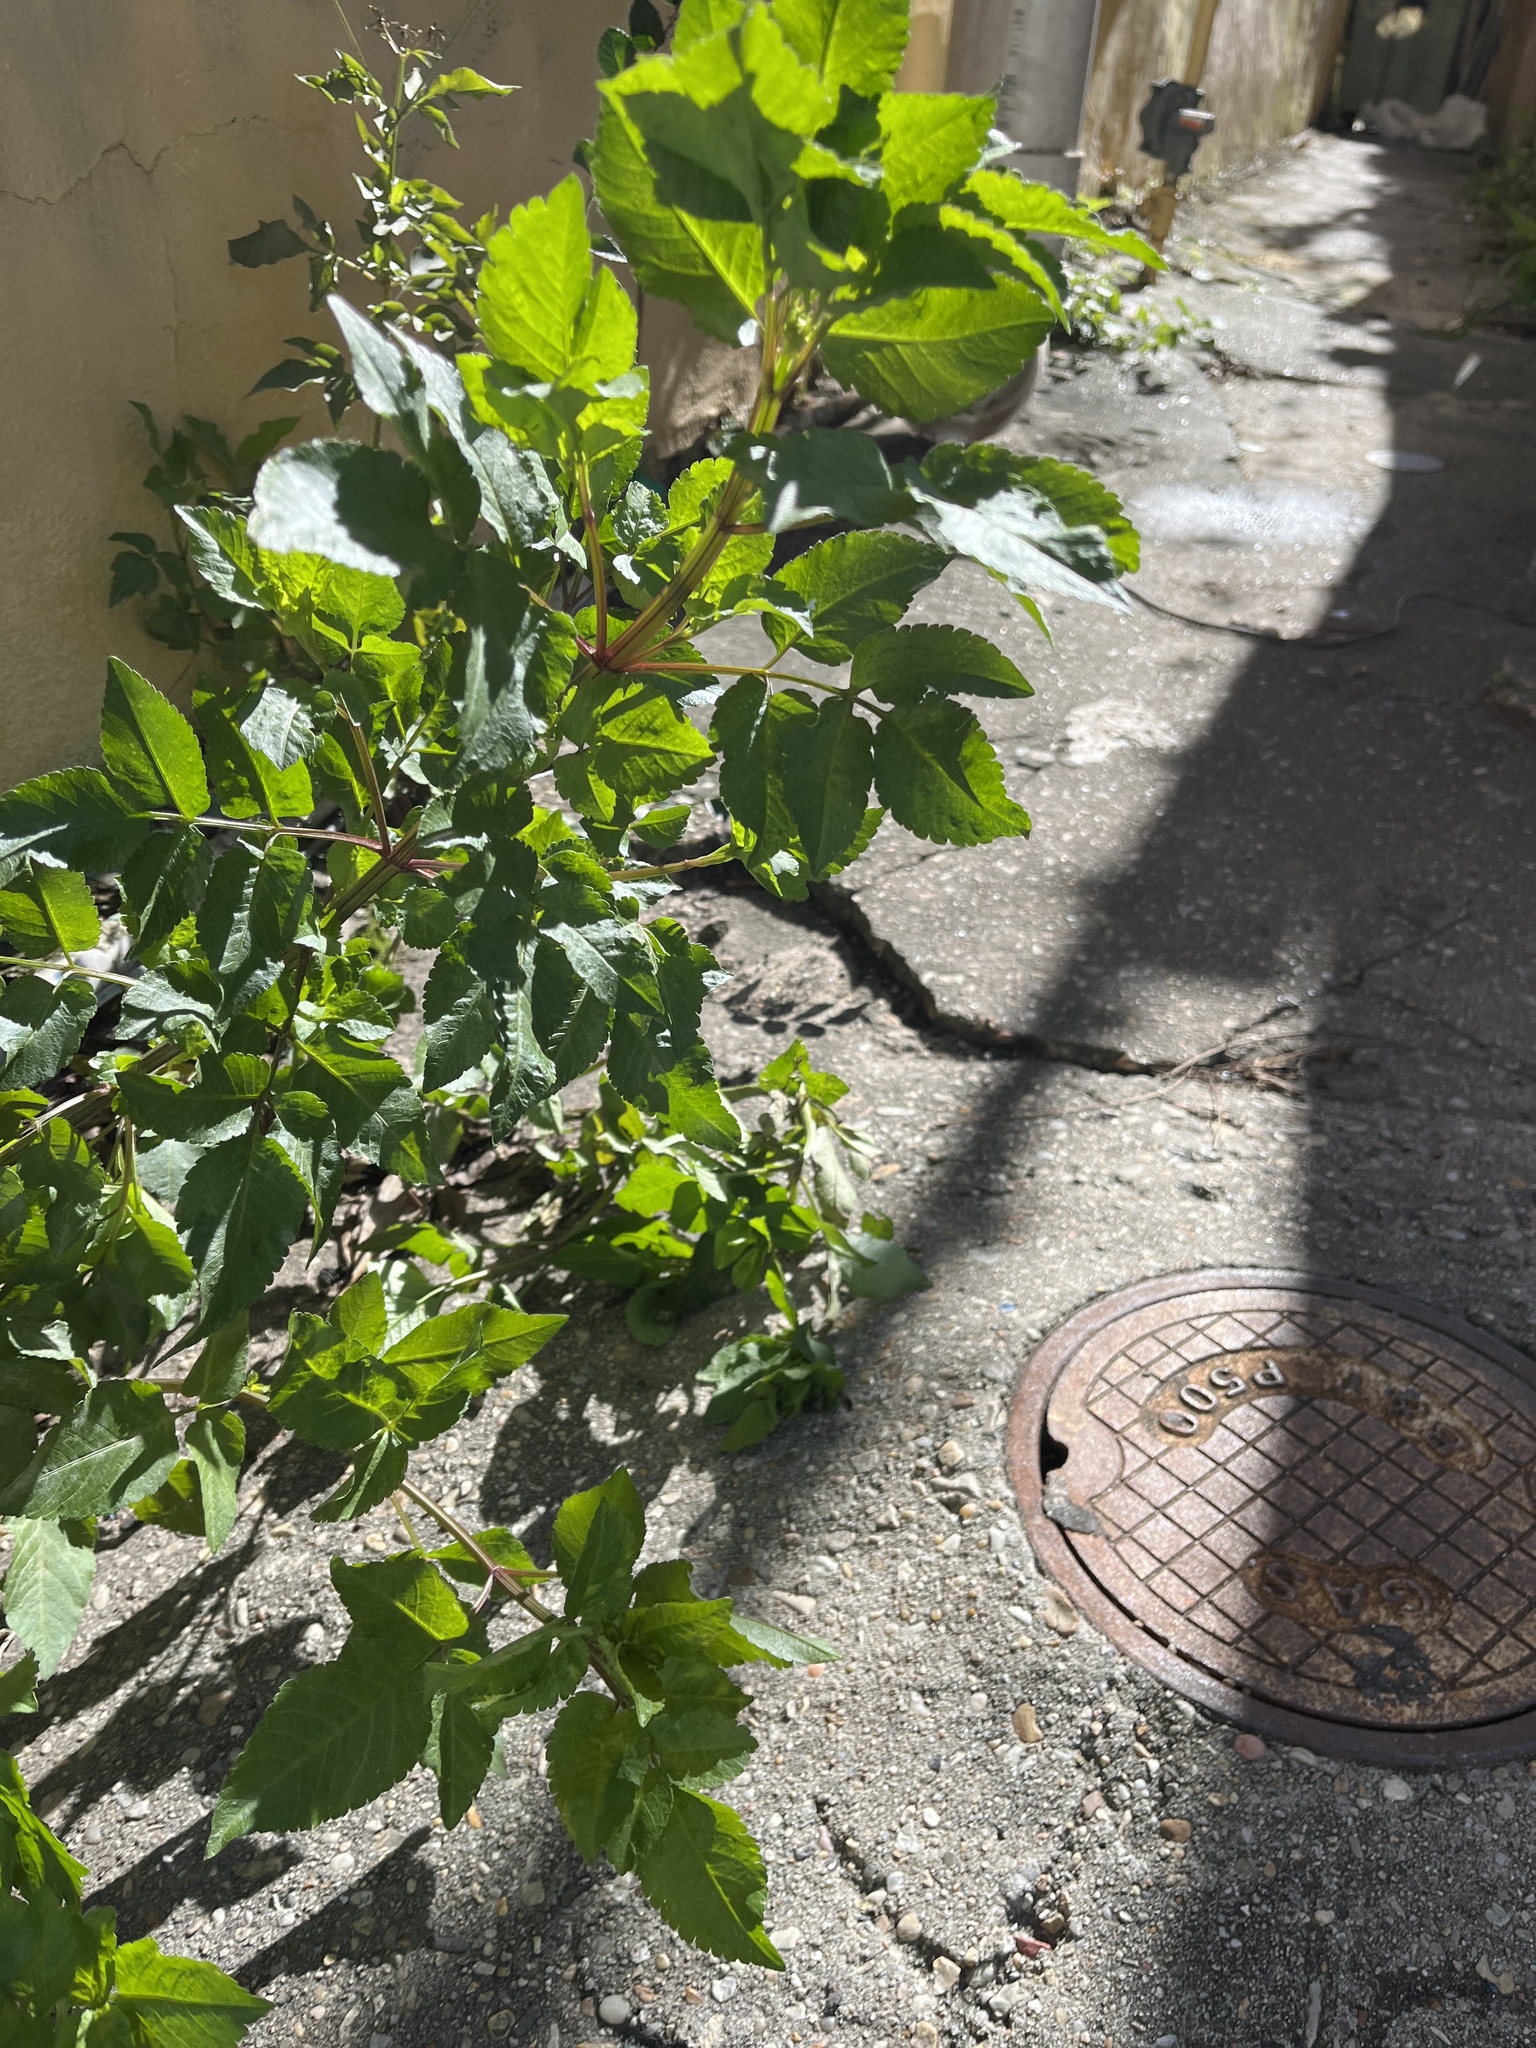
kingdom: Plantae
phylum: Tracheophyta
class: Magnoliopsida
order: Asterales
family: Asteraceae
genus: Bidens
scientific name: Bidens alba
